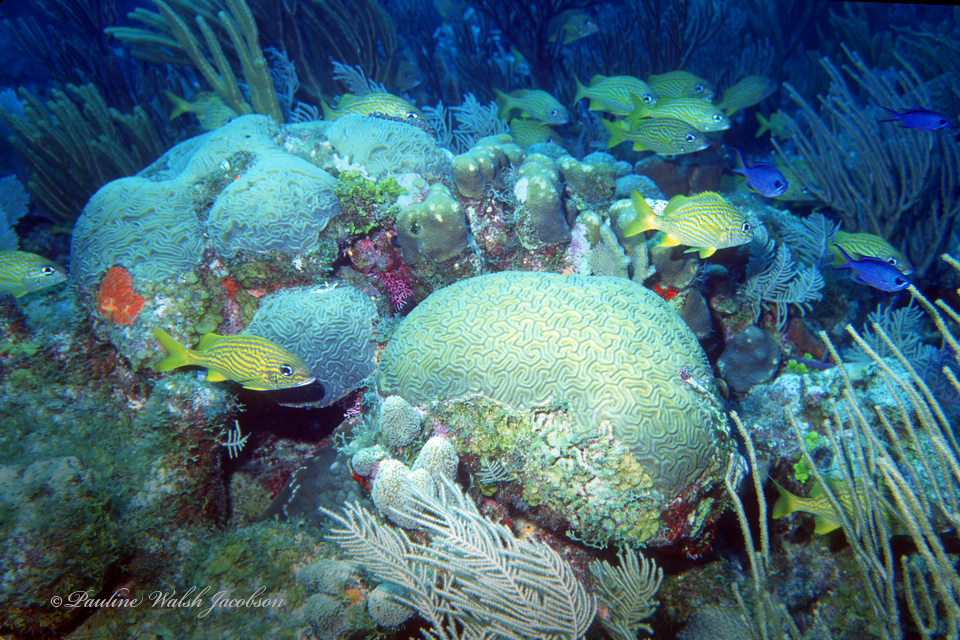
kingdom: Animalia
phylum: Chordata
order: Perciformes
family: Haemulidae
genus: Haemulon
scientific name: Haemulon flavolineatum
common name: French grunt
